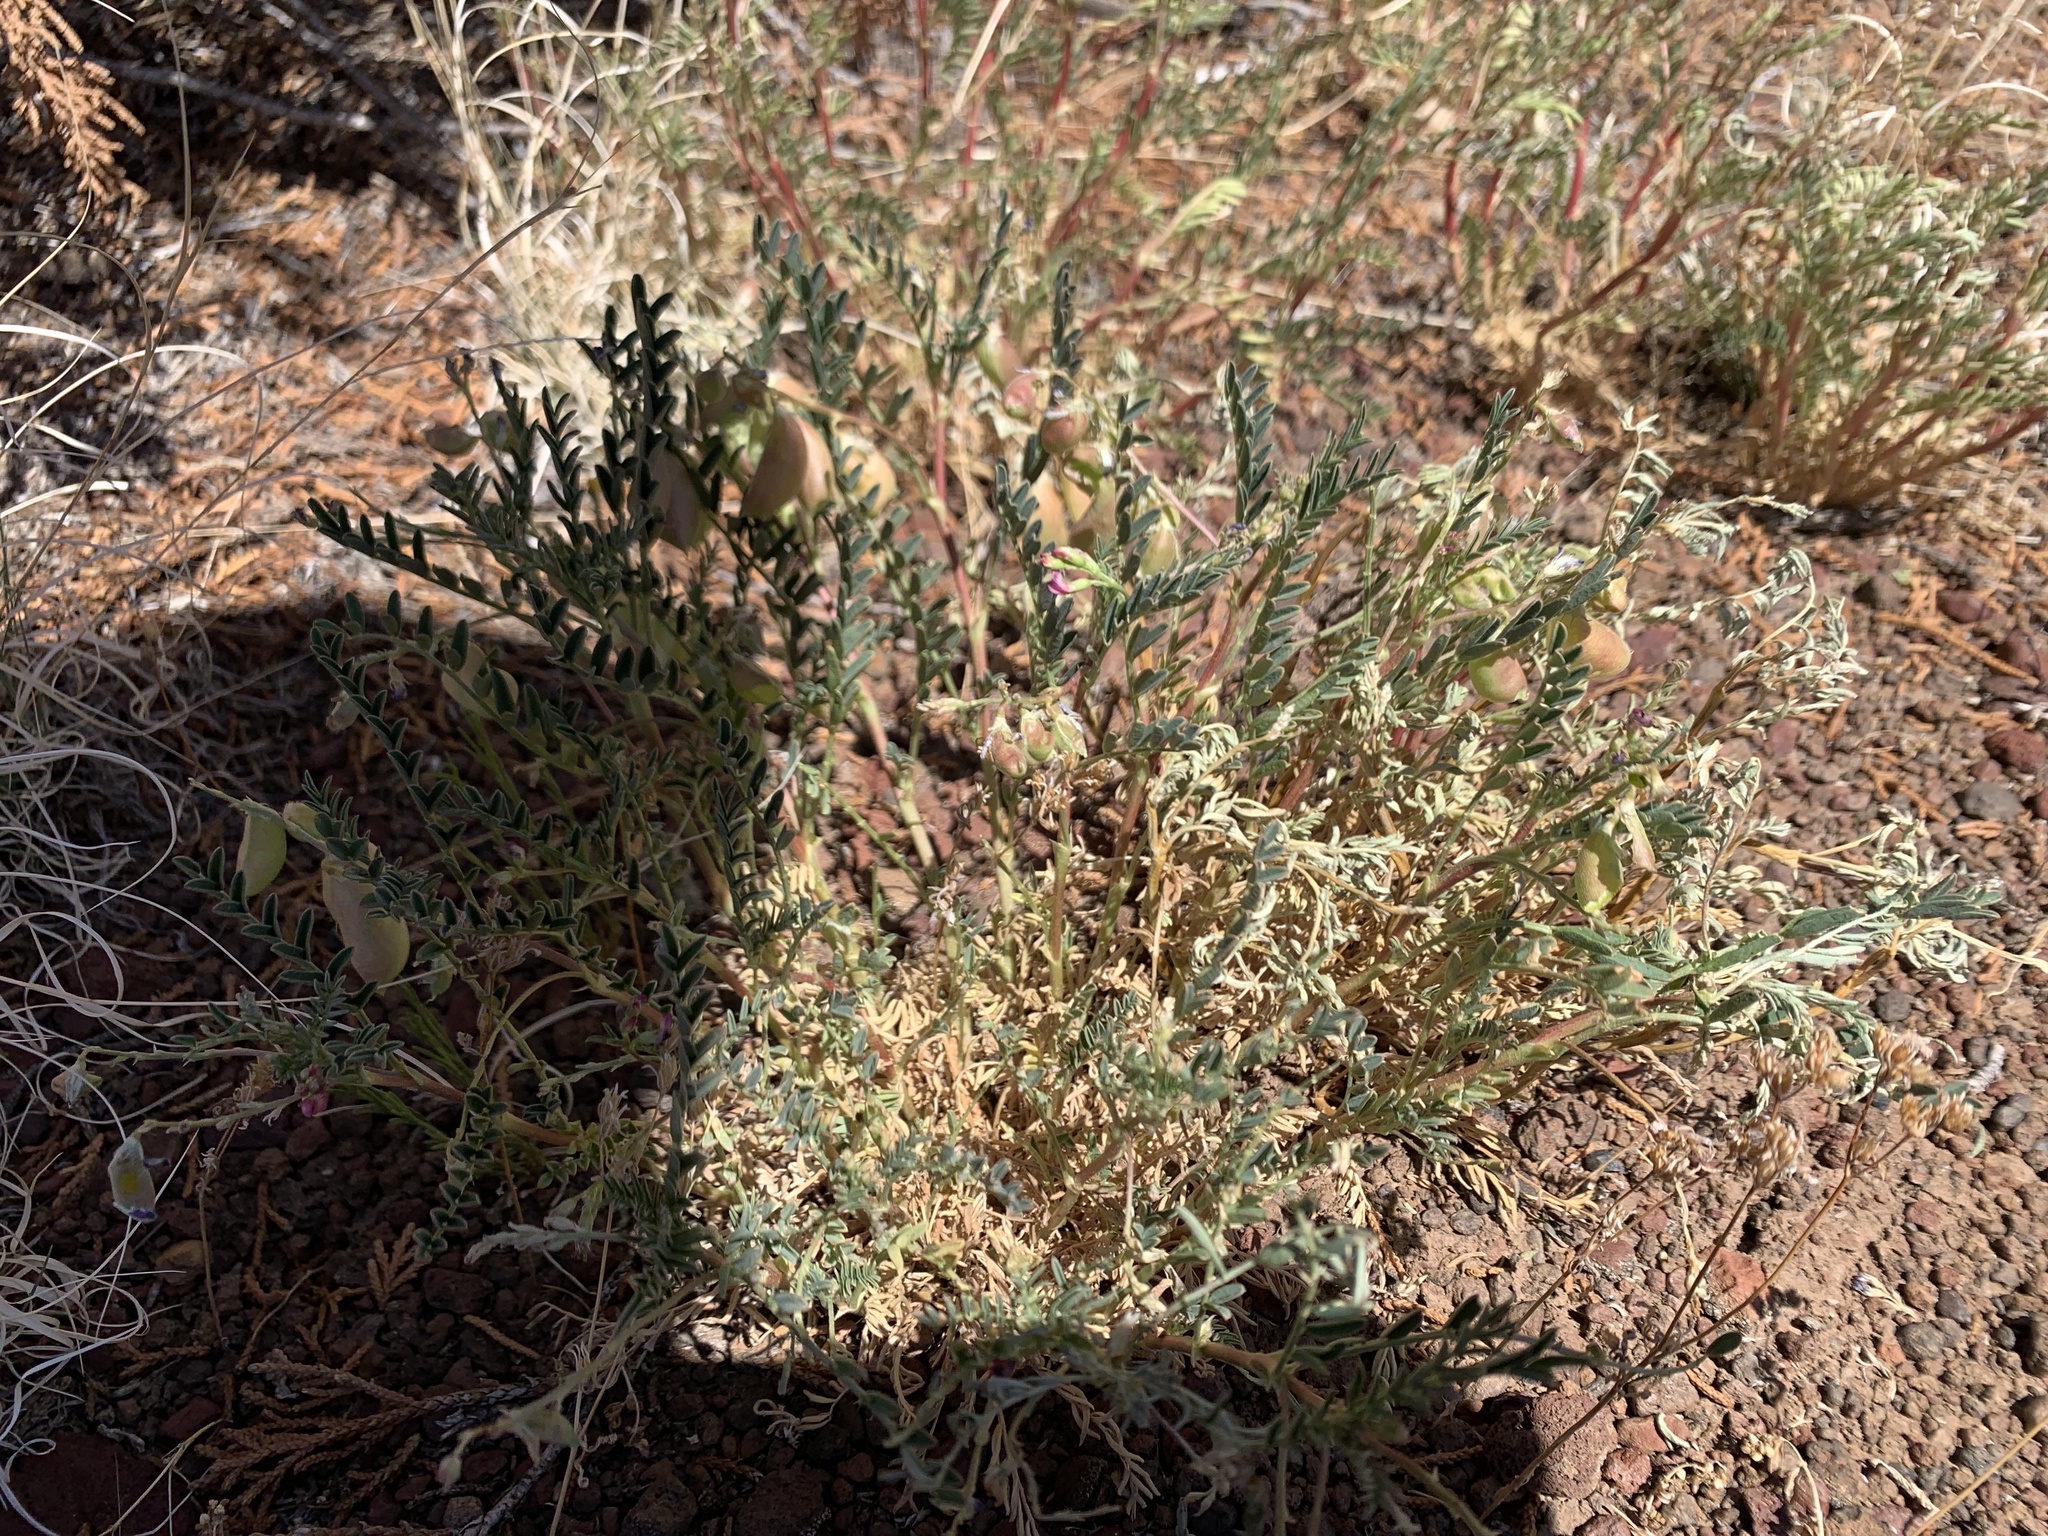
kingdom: Plantae
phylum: Tracheophyta
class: Magnoliopsida
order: Fabales
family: Fabaceae
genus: Astragalus
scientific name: Astragalus wootonii
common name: Wooton's milk-vetch
